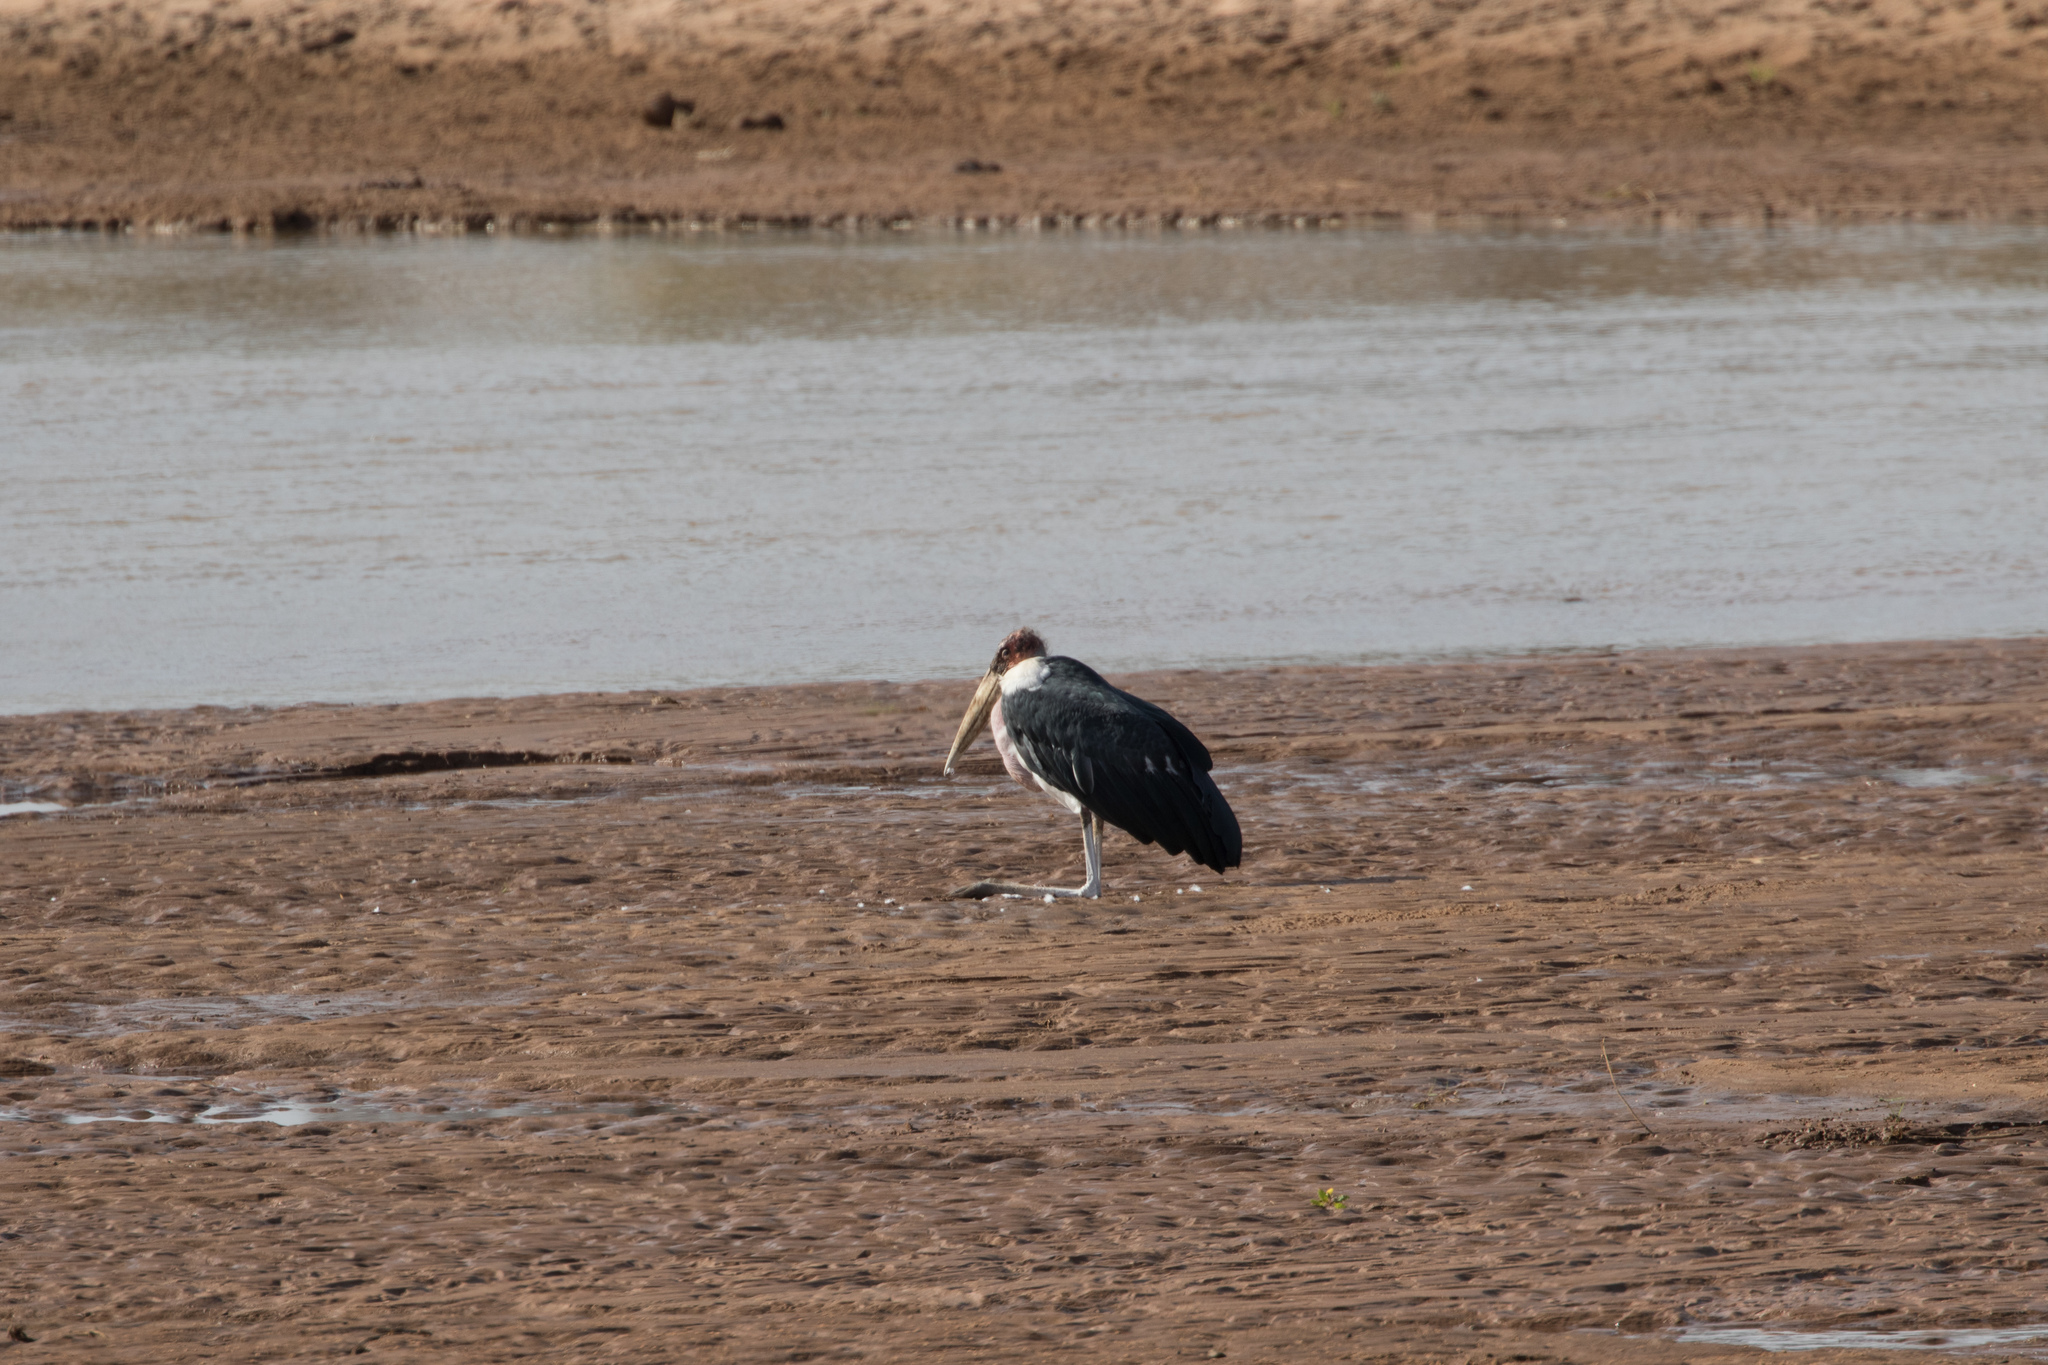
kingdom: Animalia
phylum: Chordata
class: Aves
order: Ciconiiformes
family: Ciconiidae
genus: Leptoptilos
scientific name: Leptoptilos crumenifer
